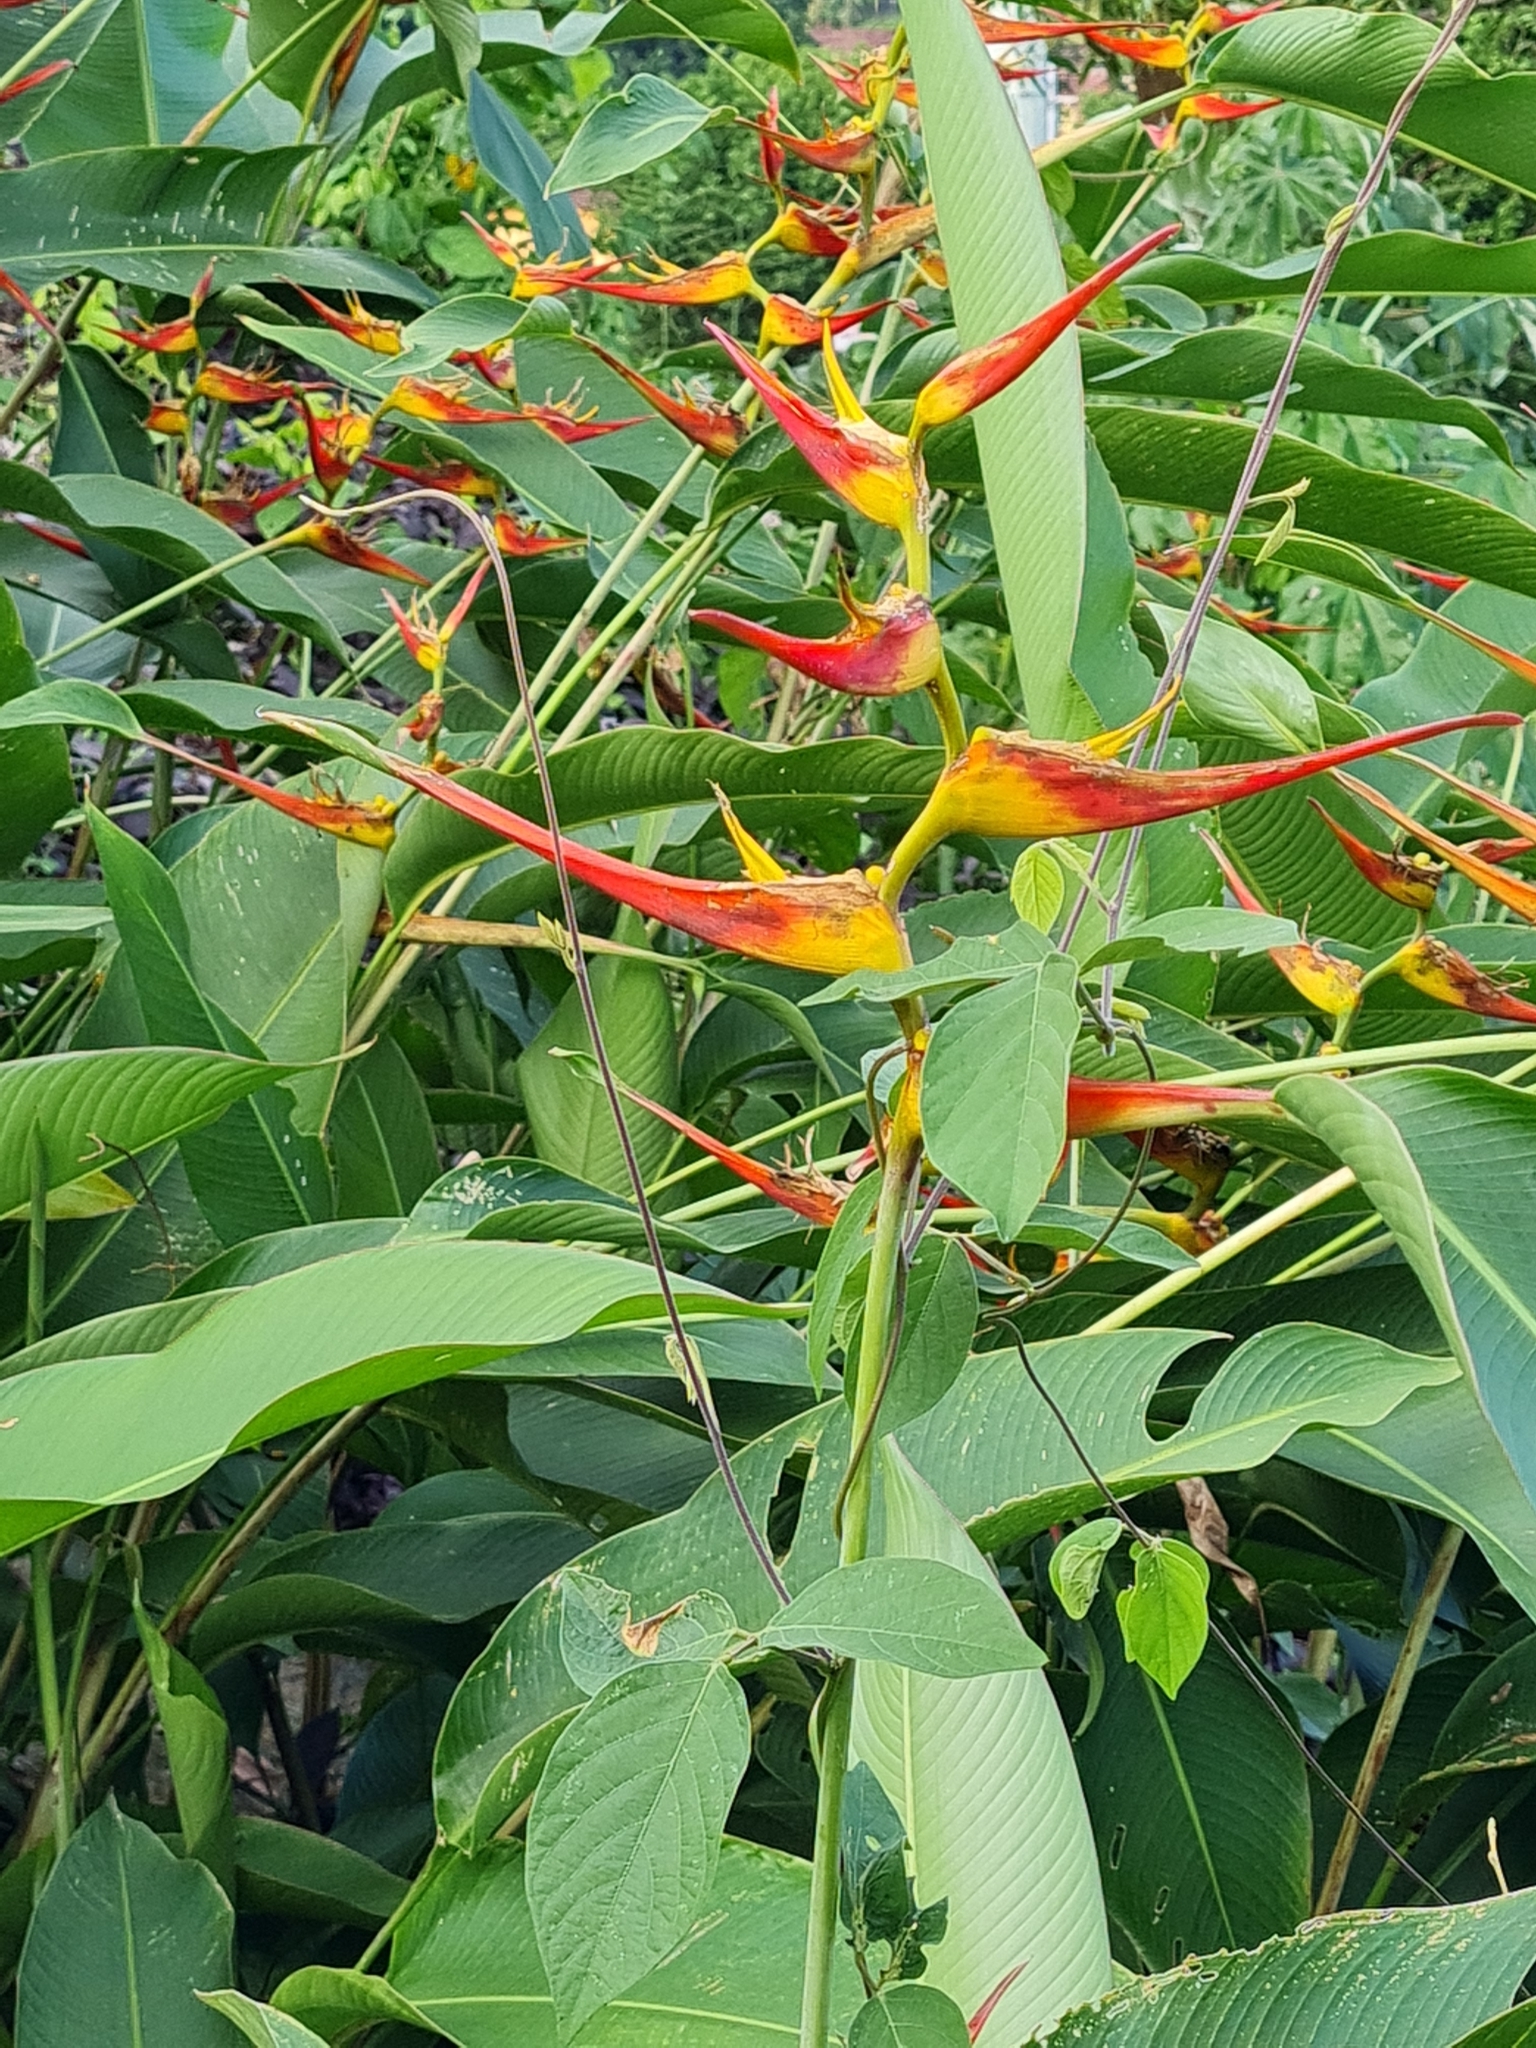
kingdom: Plantae
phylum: Tracheophyta
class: Liliopsida
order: Zingiberales
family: Heliconiaceae
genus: Heliconia
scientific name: Heliconia latispatha
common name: Expanded lobsterclaw
